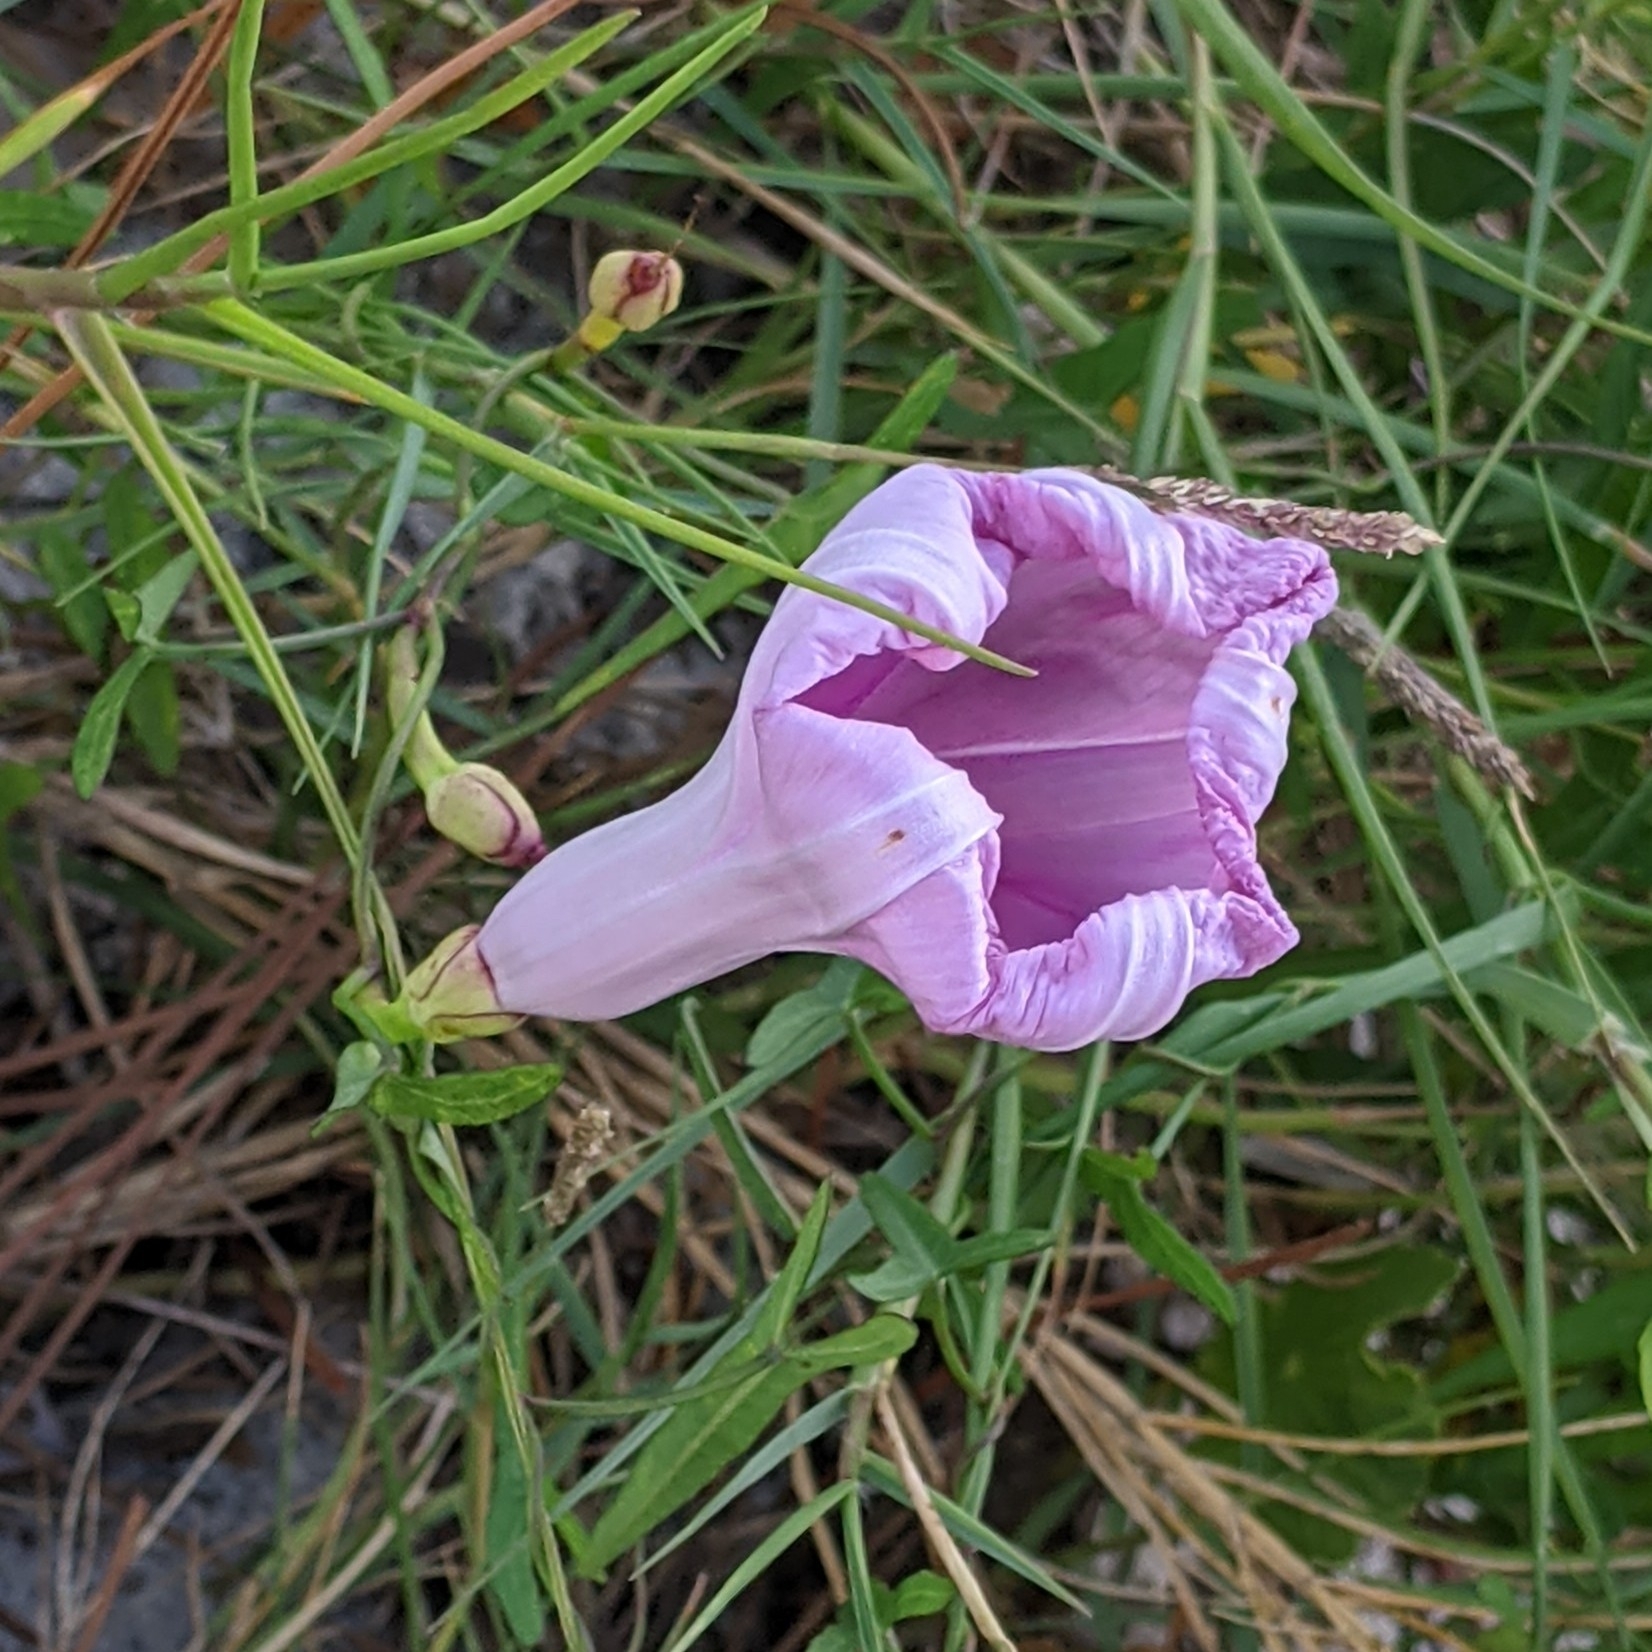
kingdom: Plantae
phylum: Tracheophyta
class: Magnoliopsida
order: Solanales
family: Convolvulaceae
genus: Ipomoea
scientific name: Ipomoea sagittata
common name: Saltmarsh morning glory
